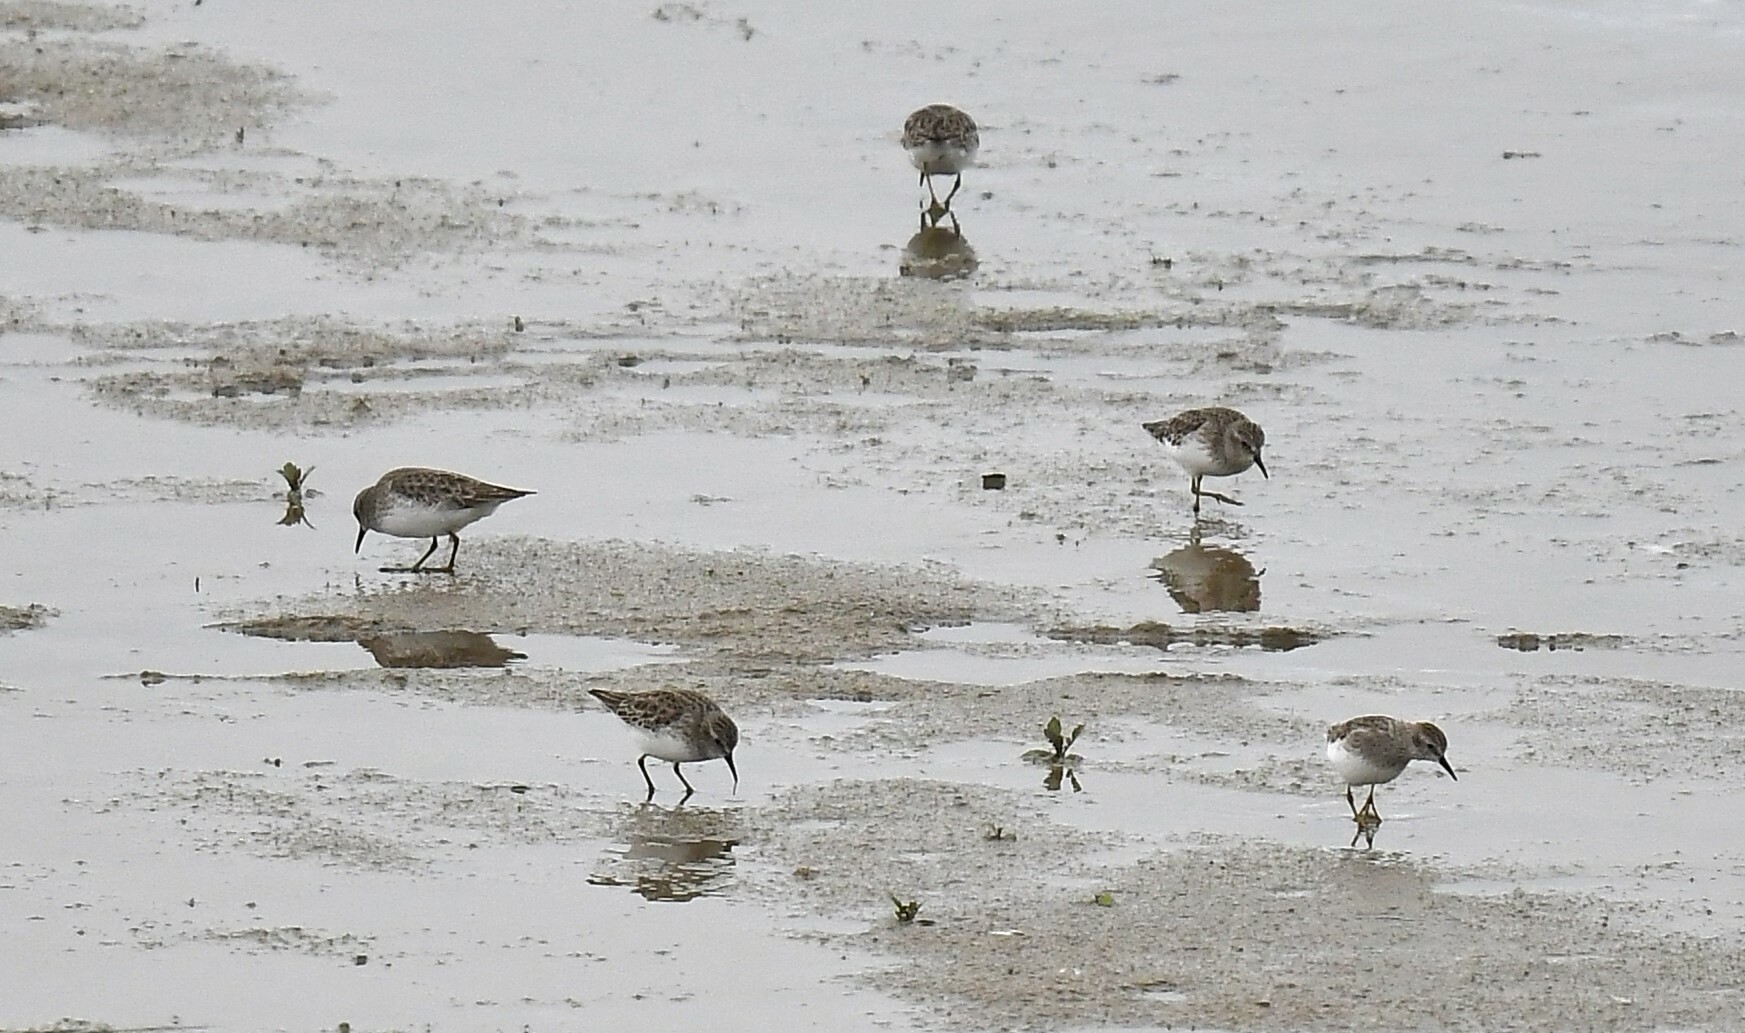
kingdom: Animalia
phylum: Chordata
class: Aves
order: Charadriiformes
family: Scolopacidae
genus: Calidris
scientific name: Calidris minutilla
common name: Least sandpiper
